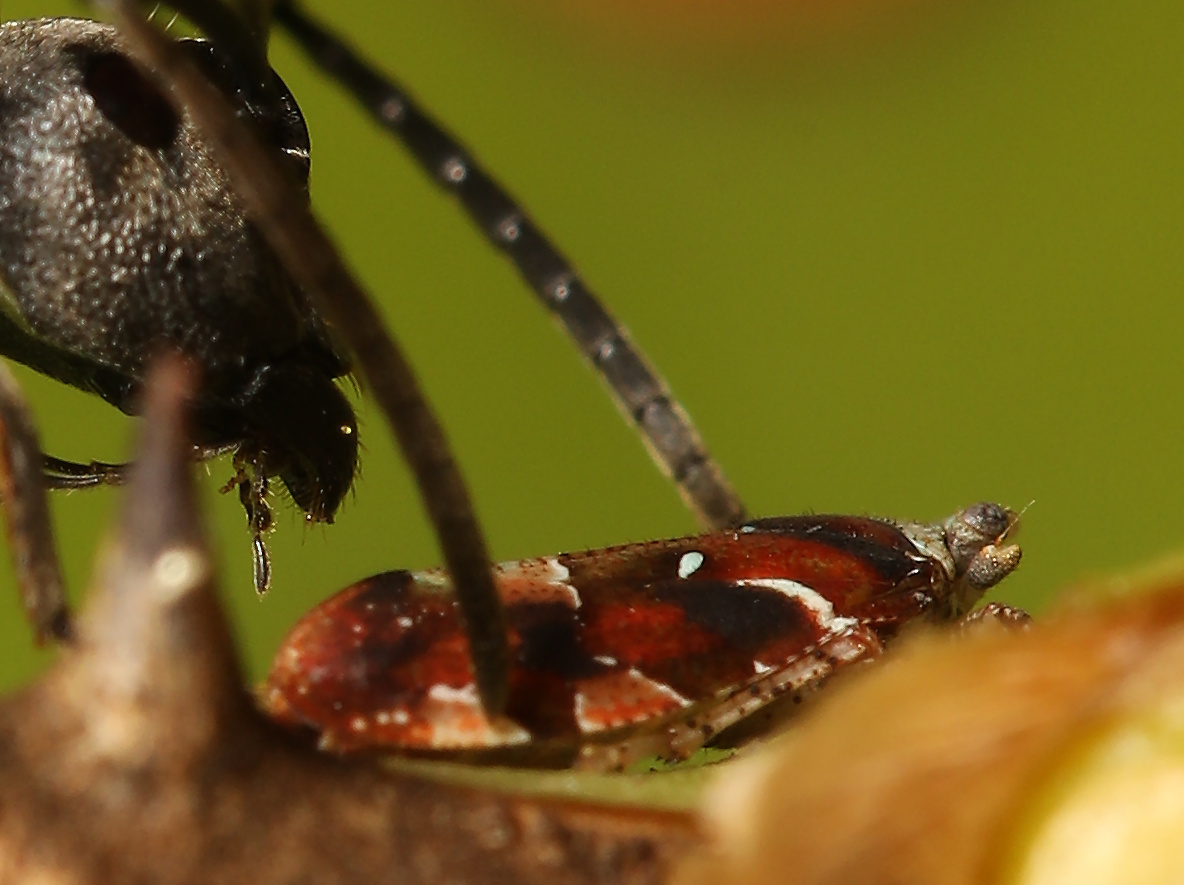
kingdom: Animalia
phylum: Arthropoda
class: Insecta
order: Hemiptera
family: Tettigometridae
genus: Nototettigometra
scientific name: Nototettigometra patruelis
